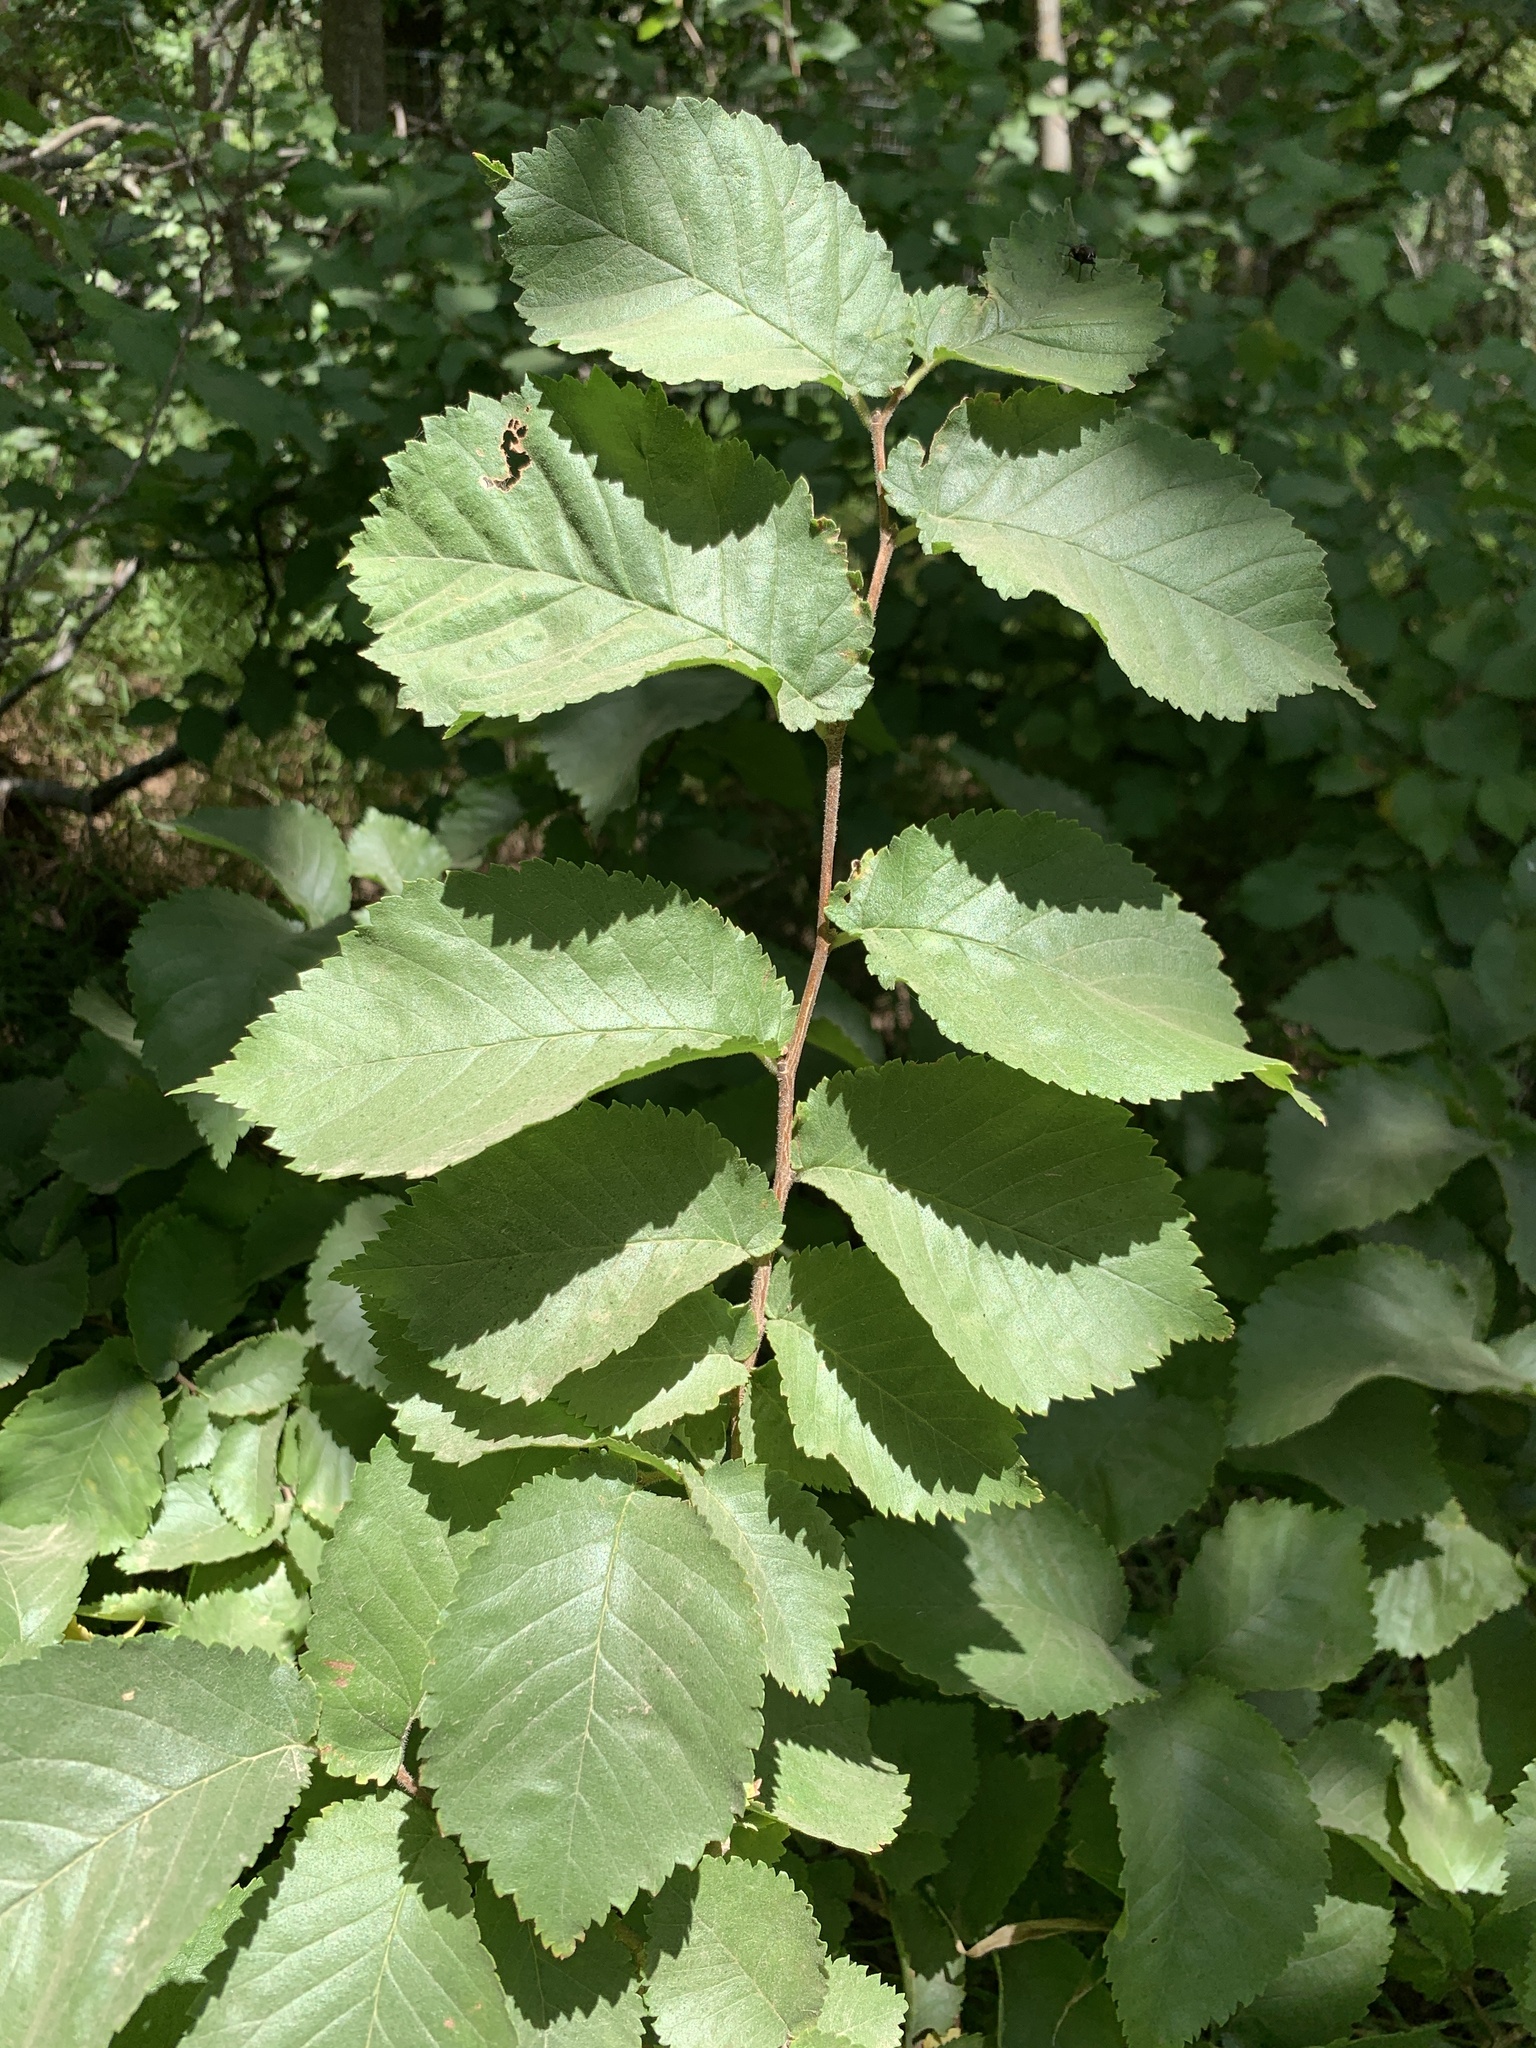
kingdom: Plantae
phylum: Tracheophyta
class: Magnoliopsida
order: Rosales
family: Ulmaceae
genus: Ulmus
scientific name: Ulmus minor
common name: Small-leaved elm
